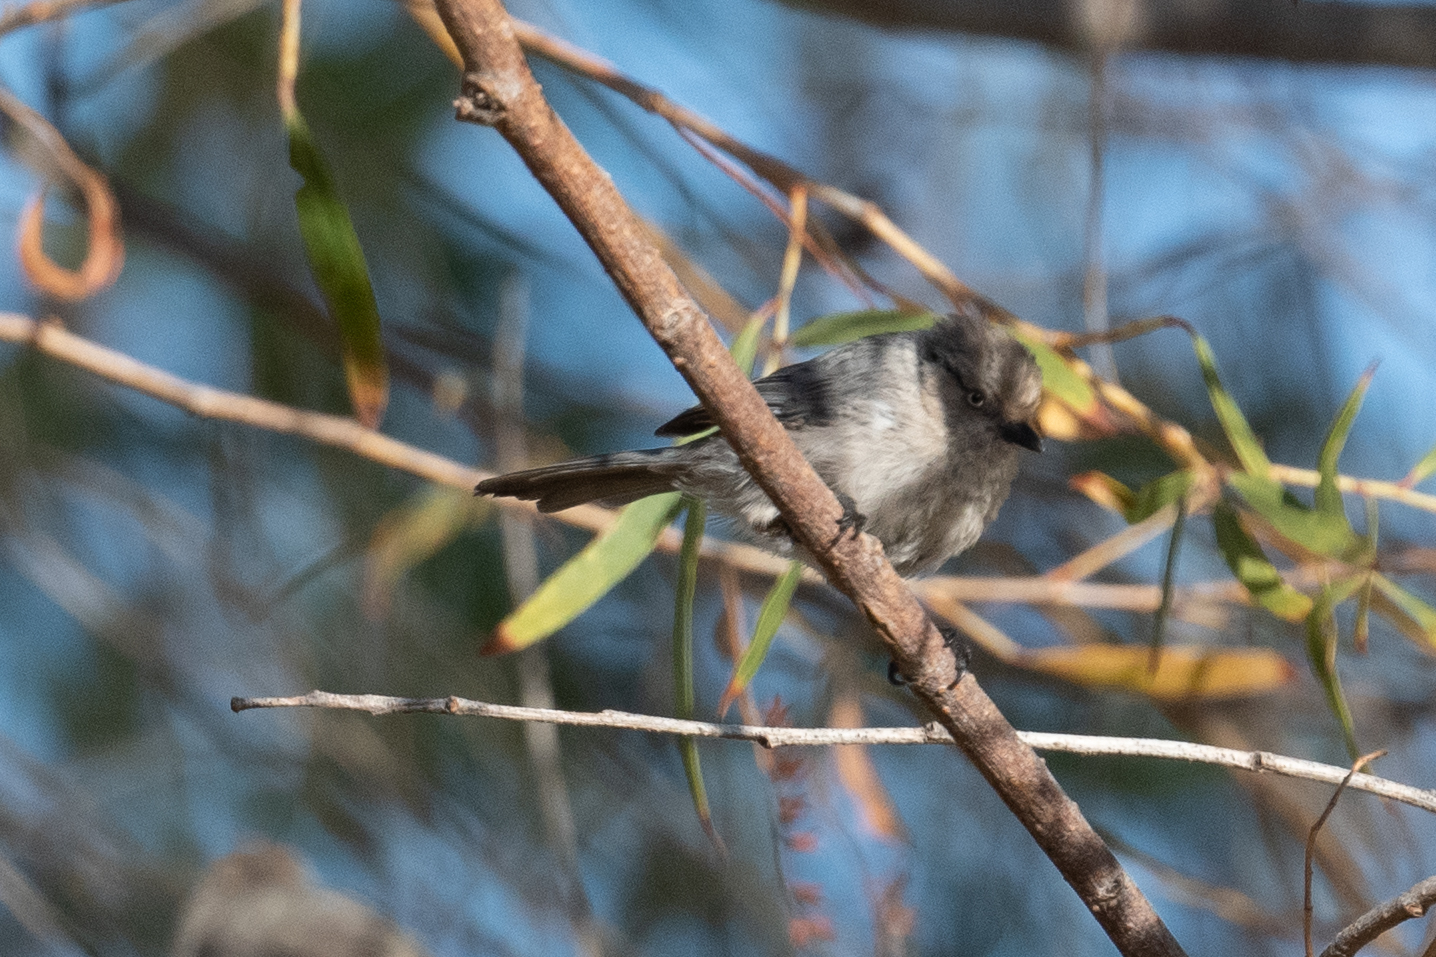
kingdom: Animalia
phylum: Chordata
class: Aves
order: Passeriformes
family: Aegithalidae
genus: Psaltriparus
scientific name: Psaltriparus minimus
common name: American bushtit
